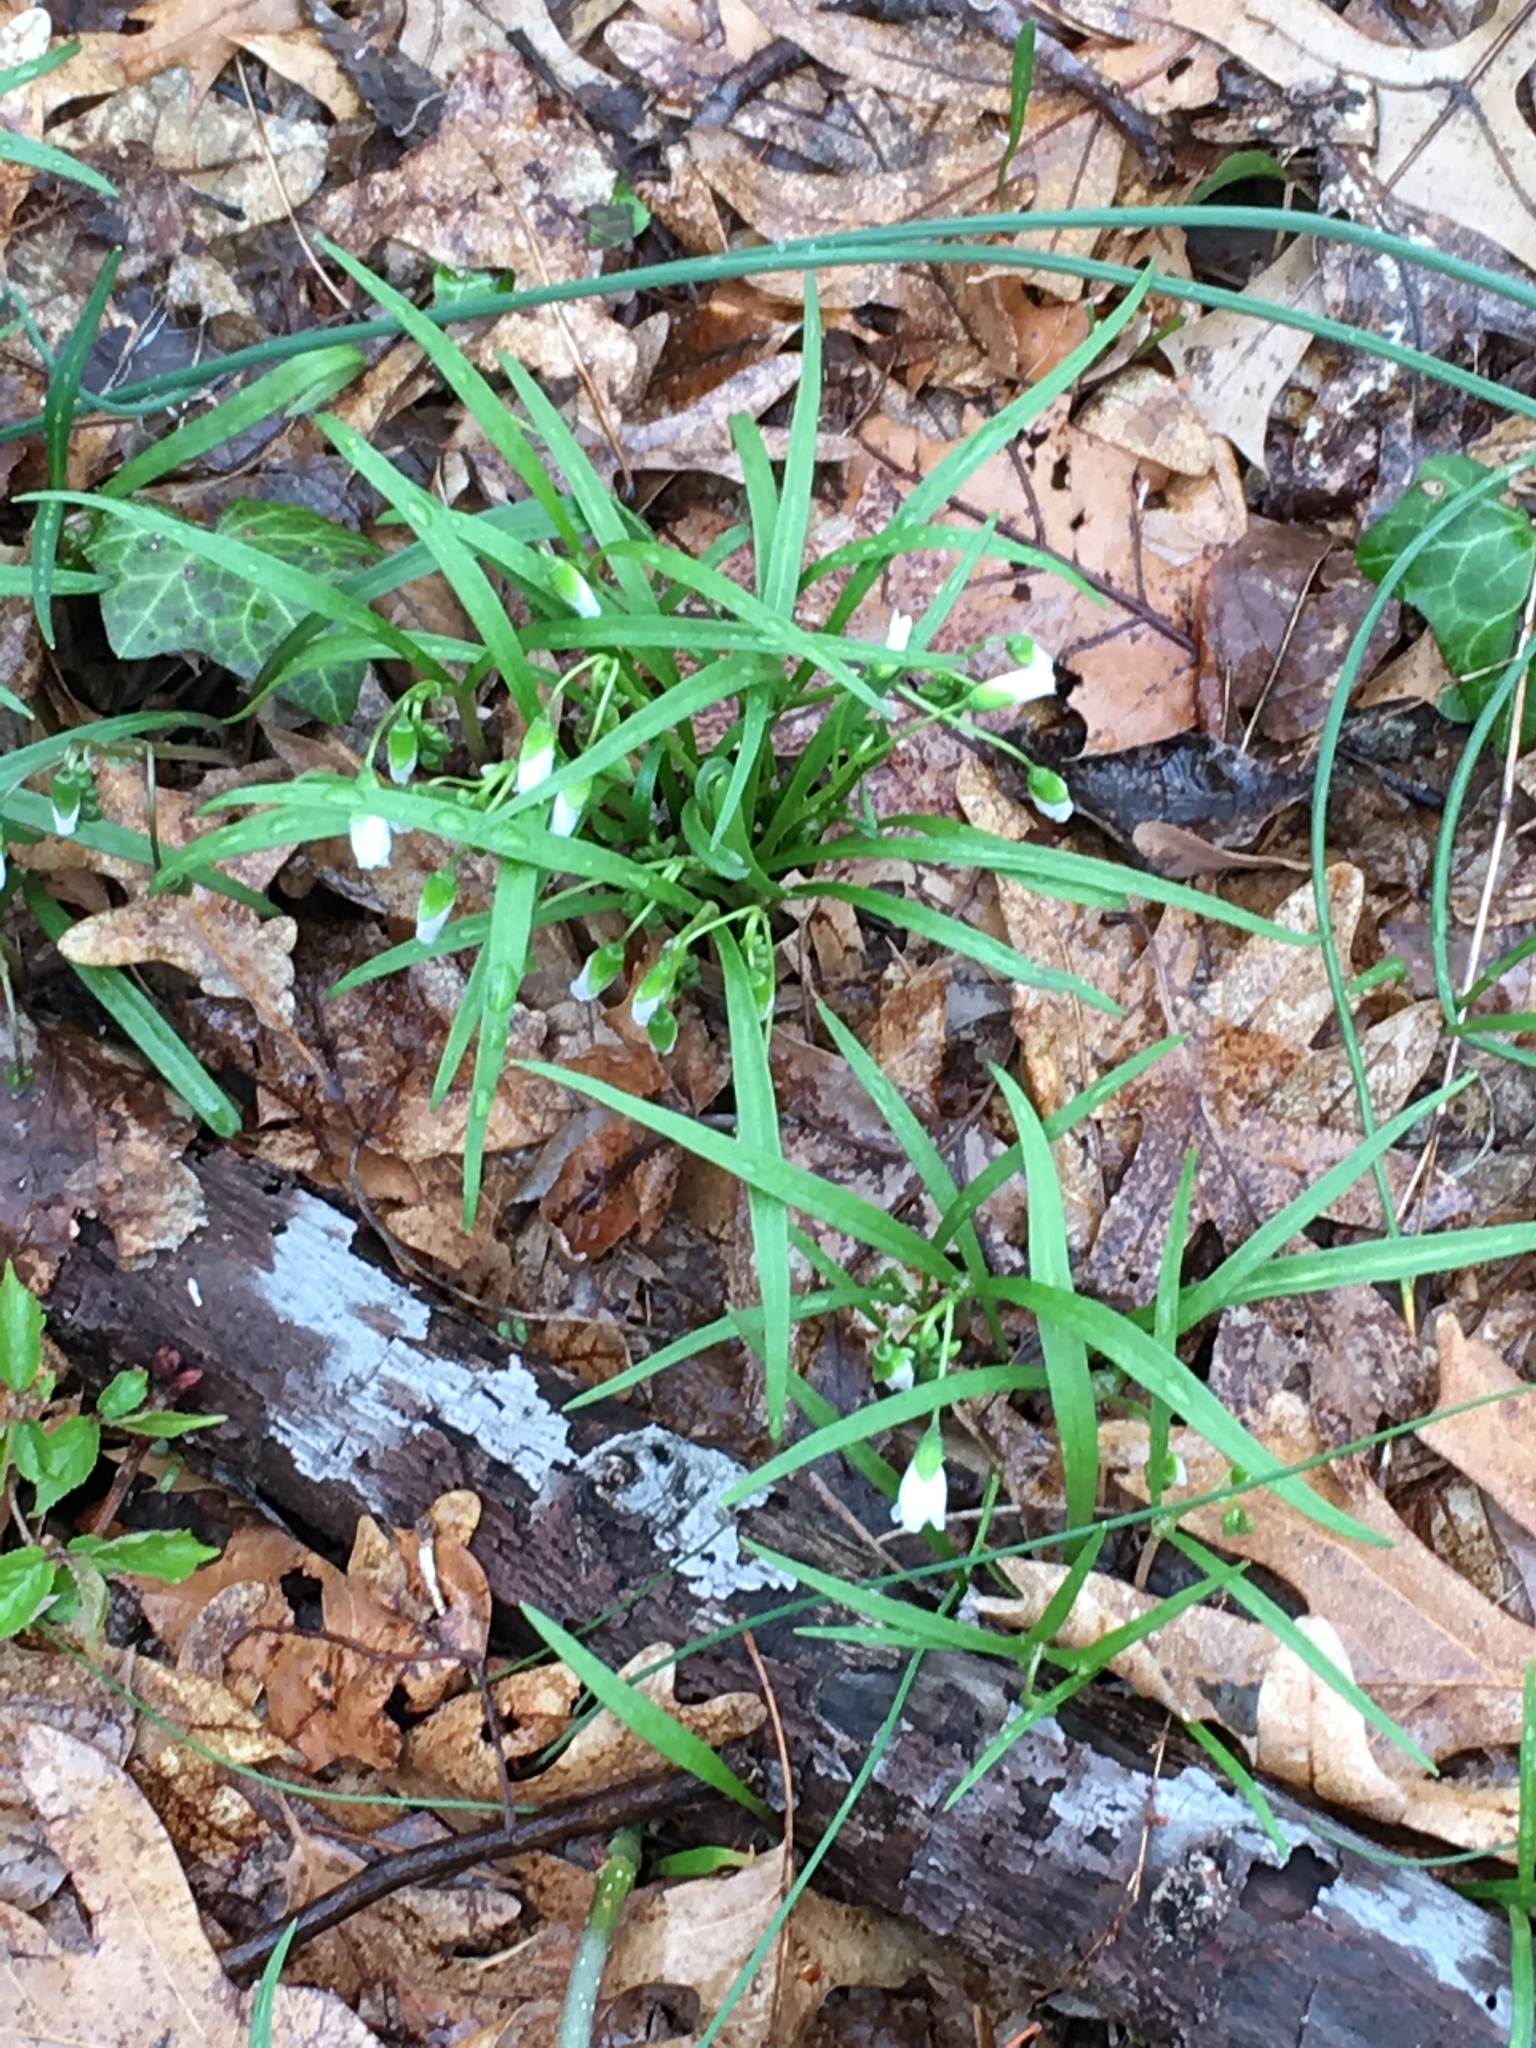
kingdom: Plantae
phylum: Tracheophyta
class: Magnoliopsida
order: Caryophyllales
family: Montiaceae
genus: Claytonia
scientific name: Claytonia virginica
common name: Virginia springbeauty
